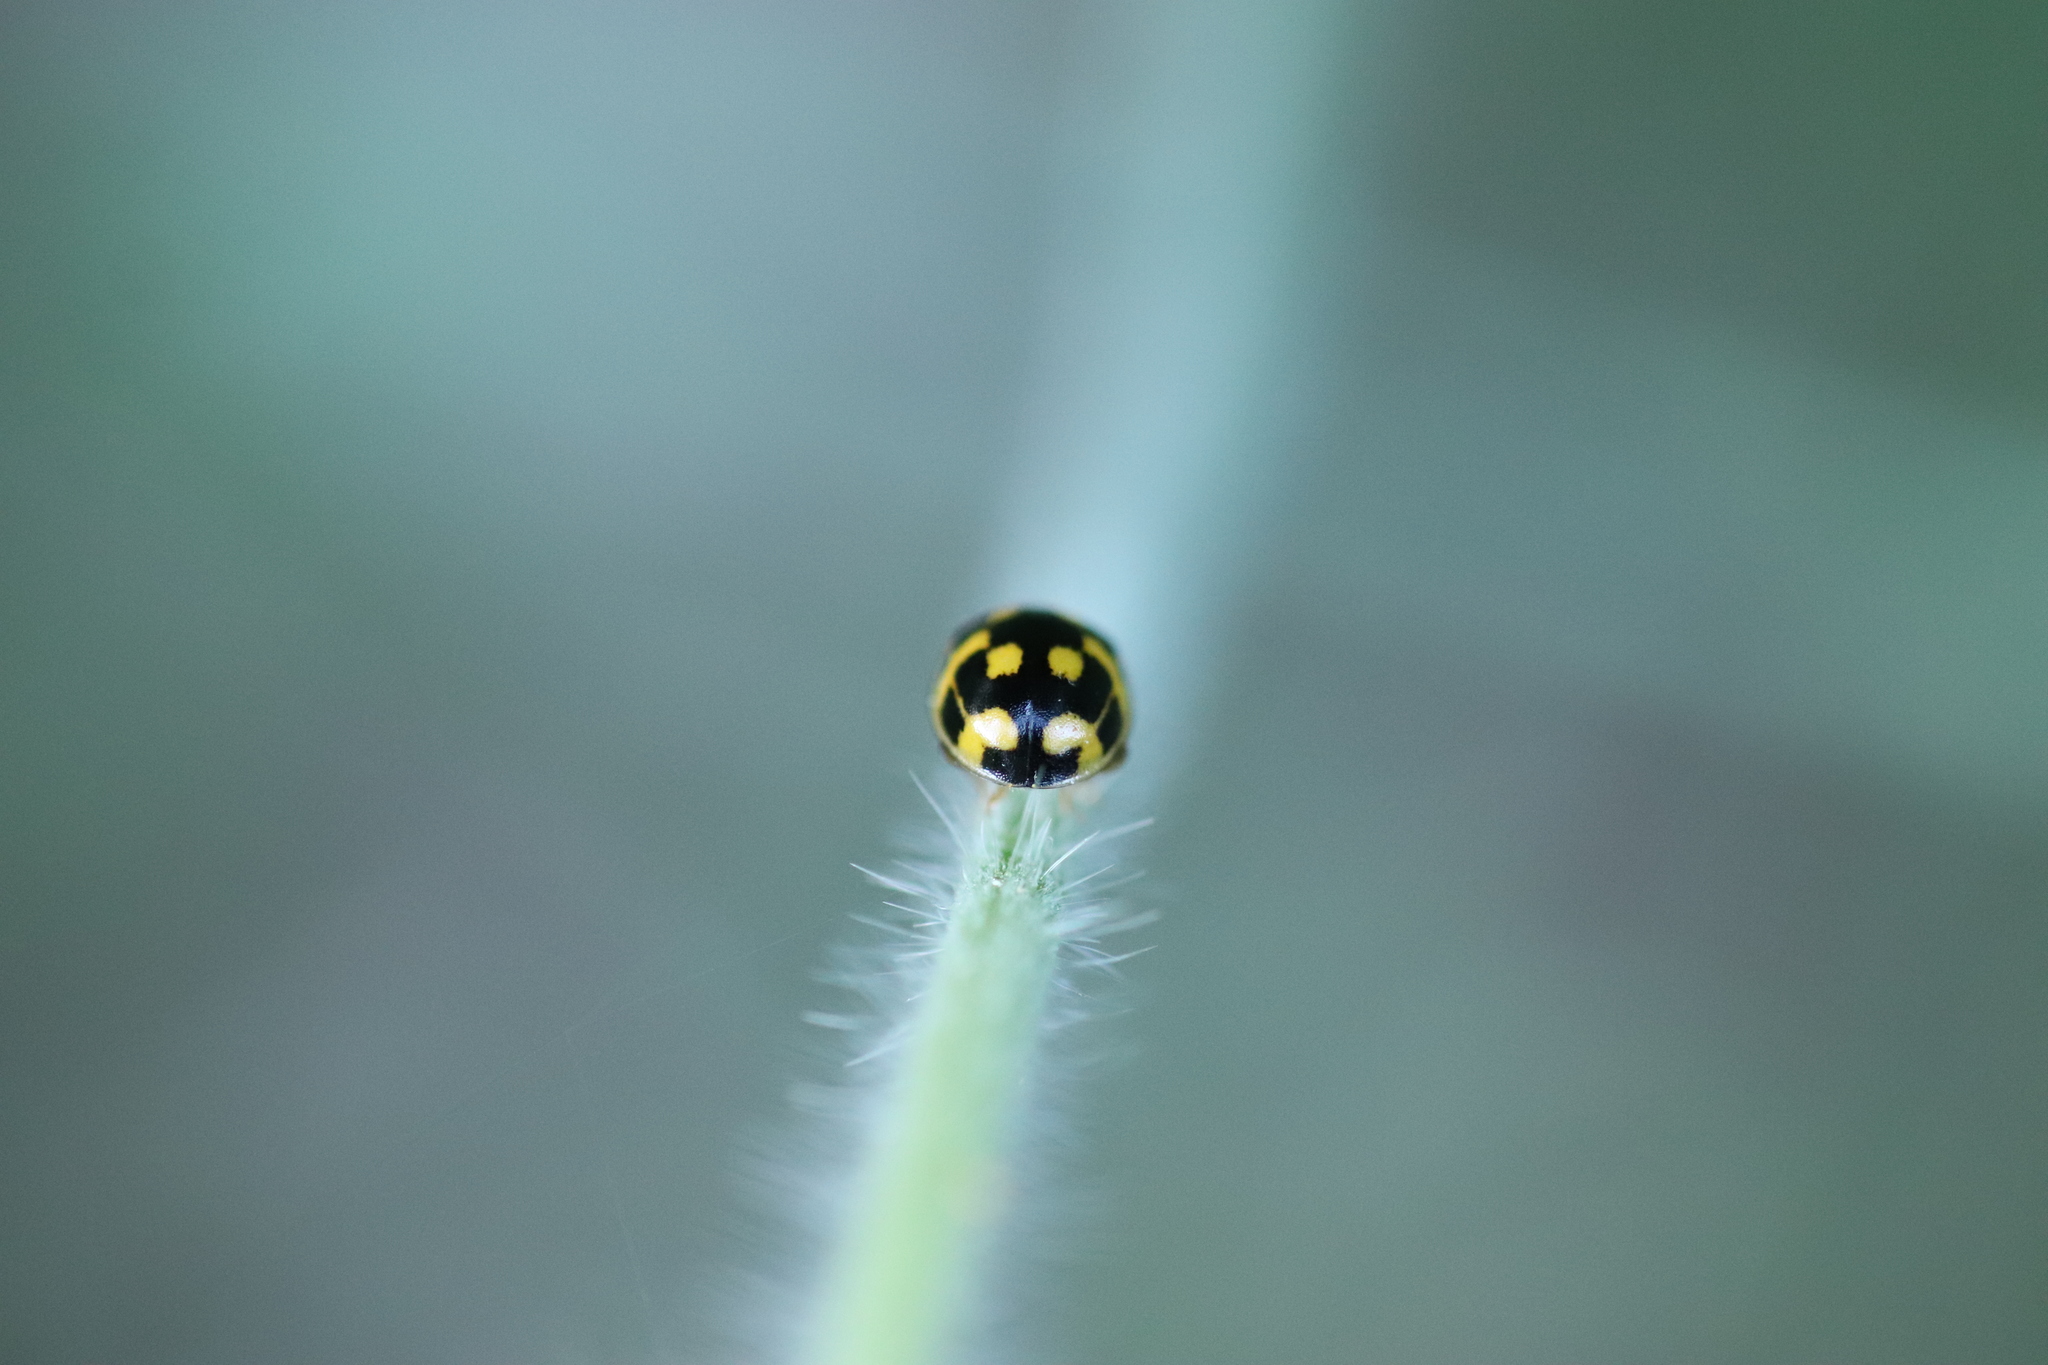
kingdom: Animalia
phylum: Arthropoda
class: Insecta
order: Coleoptera
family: Coccinellidae
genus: Propylaea
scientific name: Propylaea quatuordecimpunctata
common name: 14-spotted ladybird beetle
